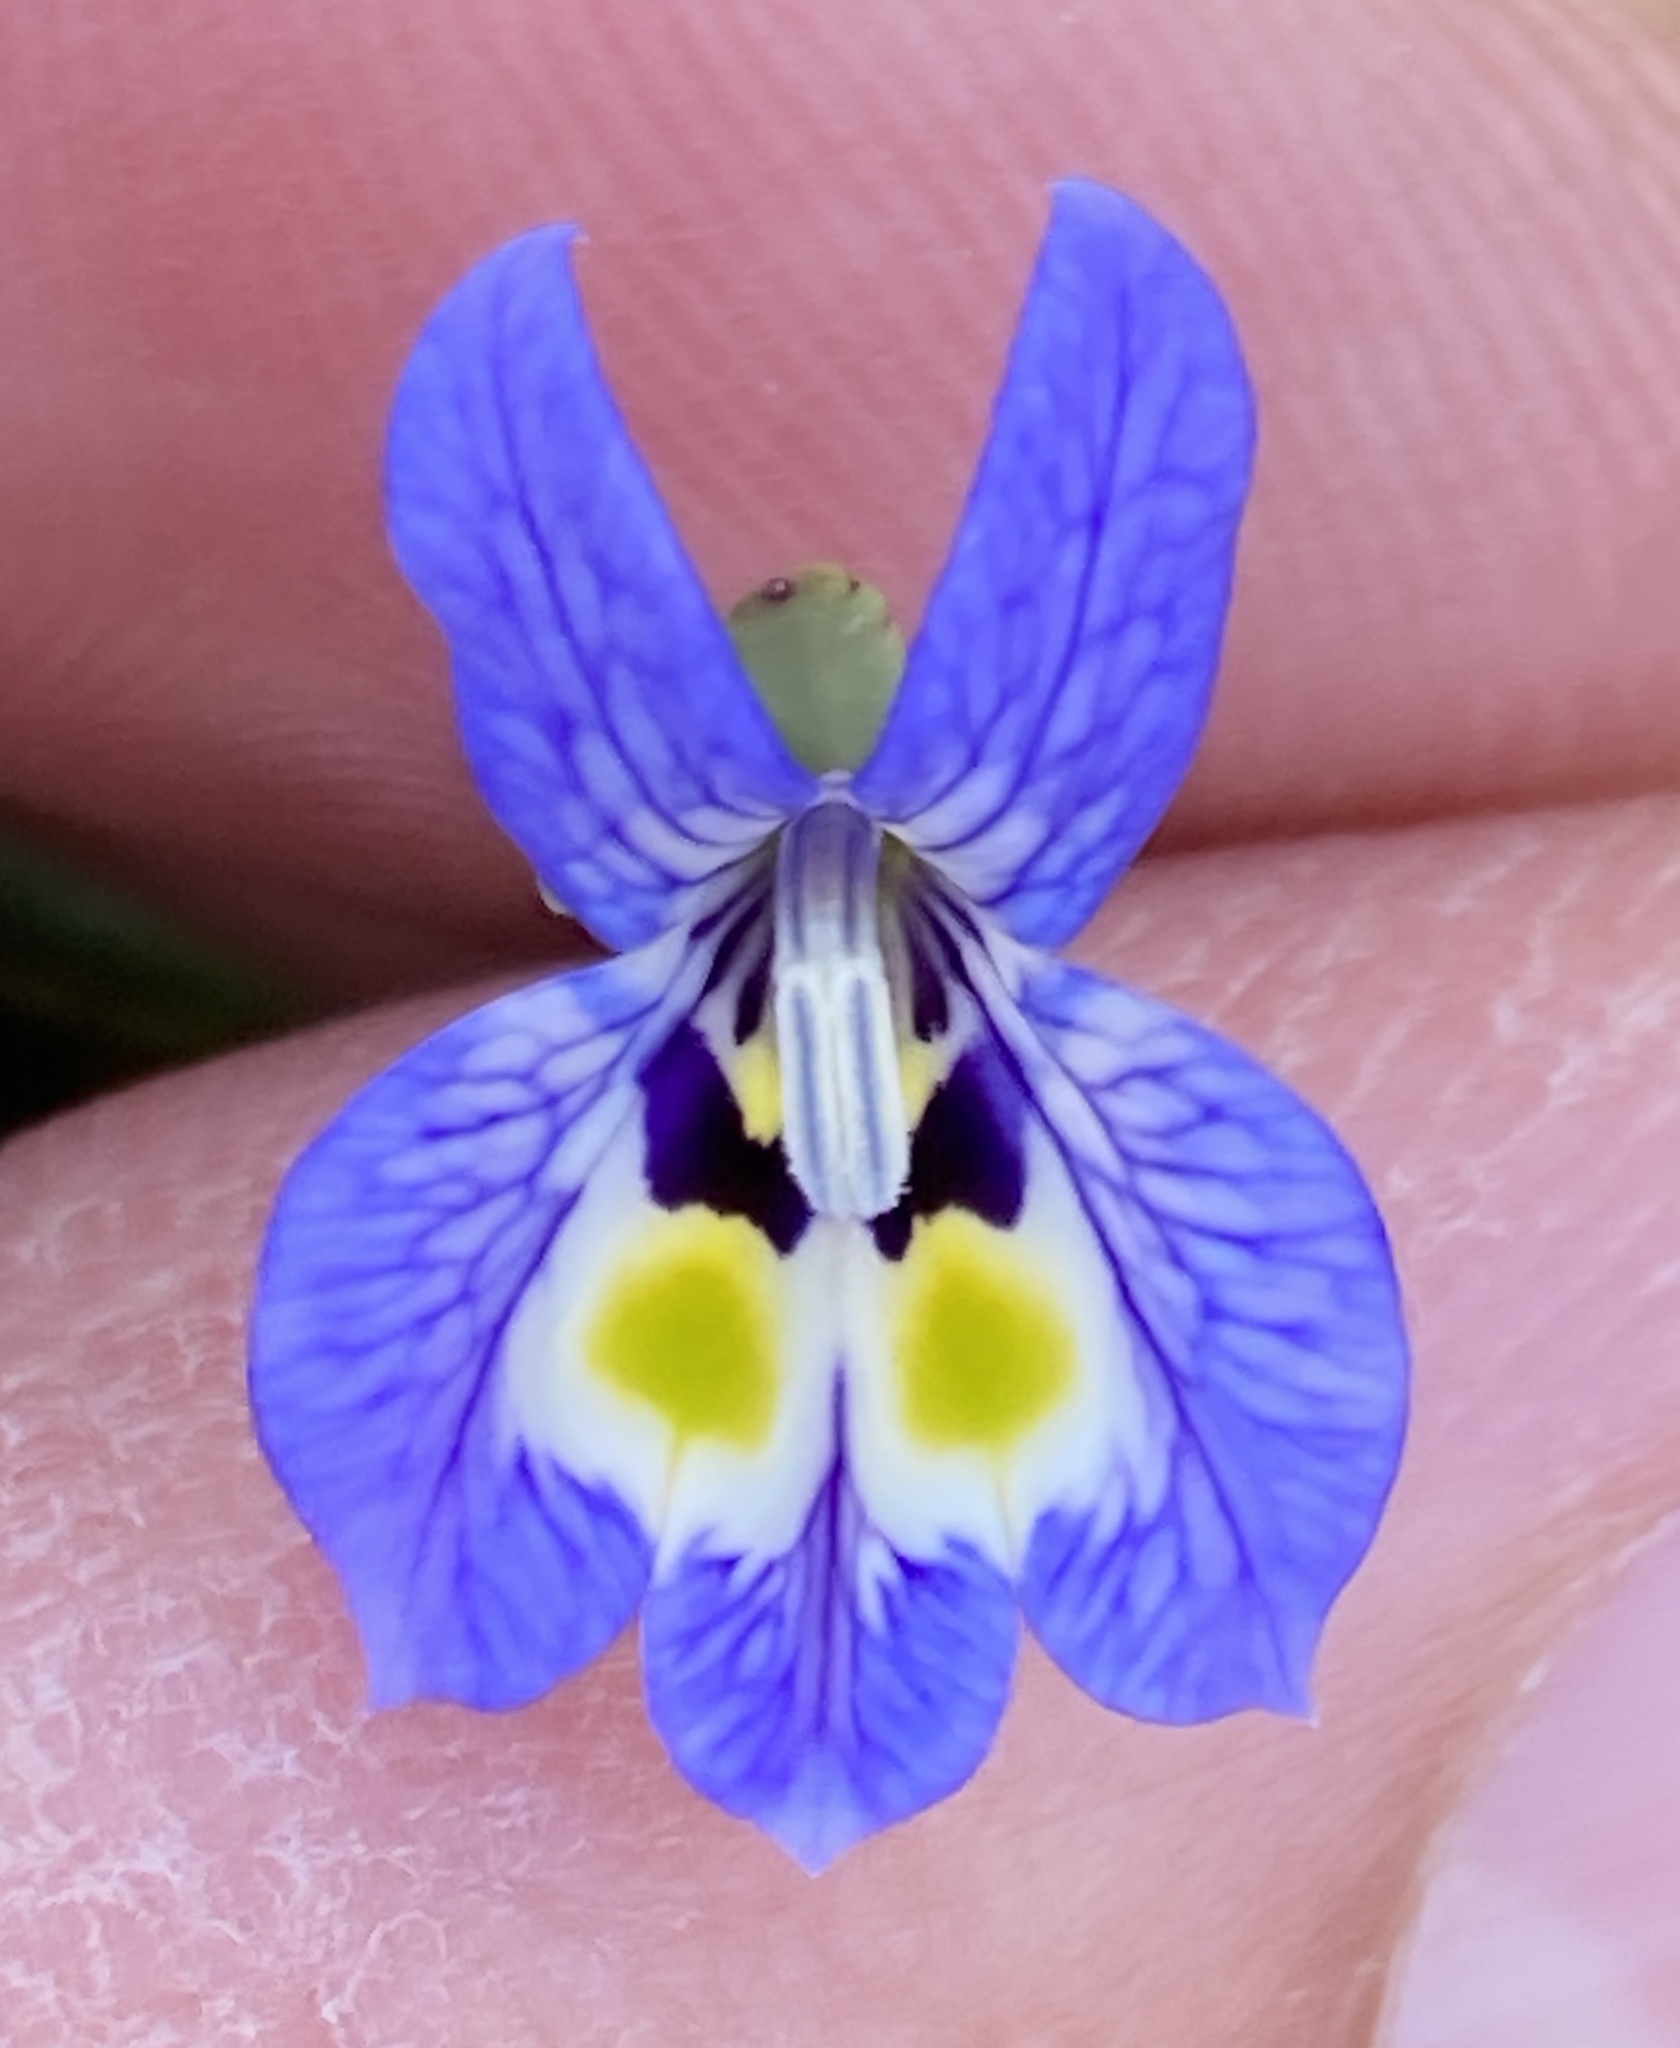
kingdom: Plantae
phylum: Tracheophyta
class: Magnoliopsida
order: Asterales
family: Campanulaceae
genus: Downingia
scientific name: Downingia insignis
